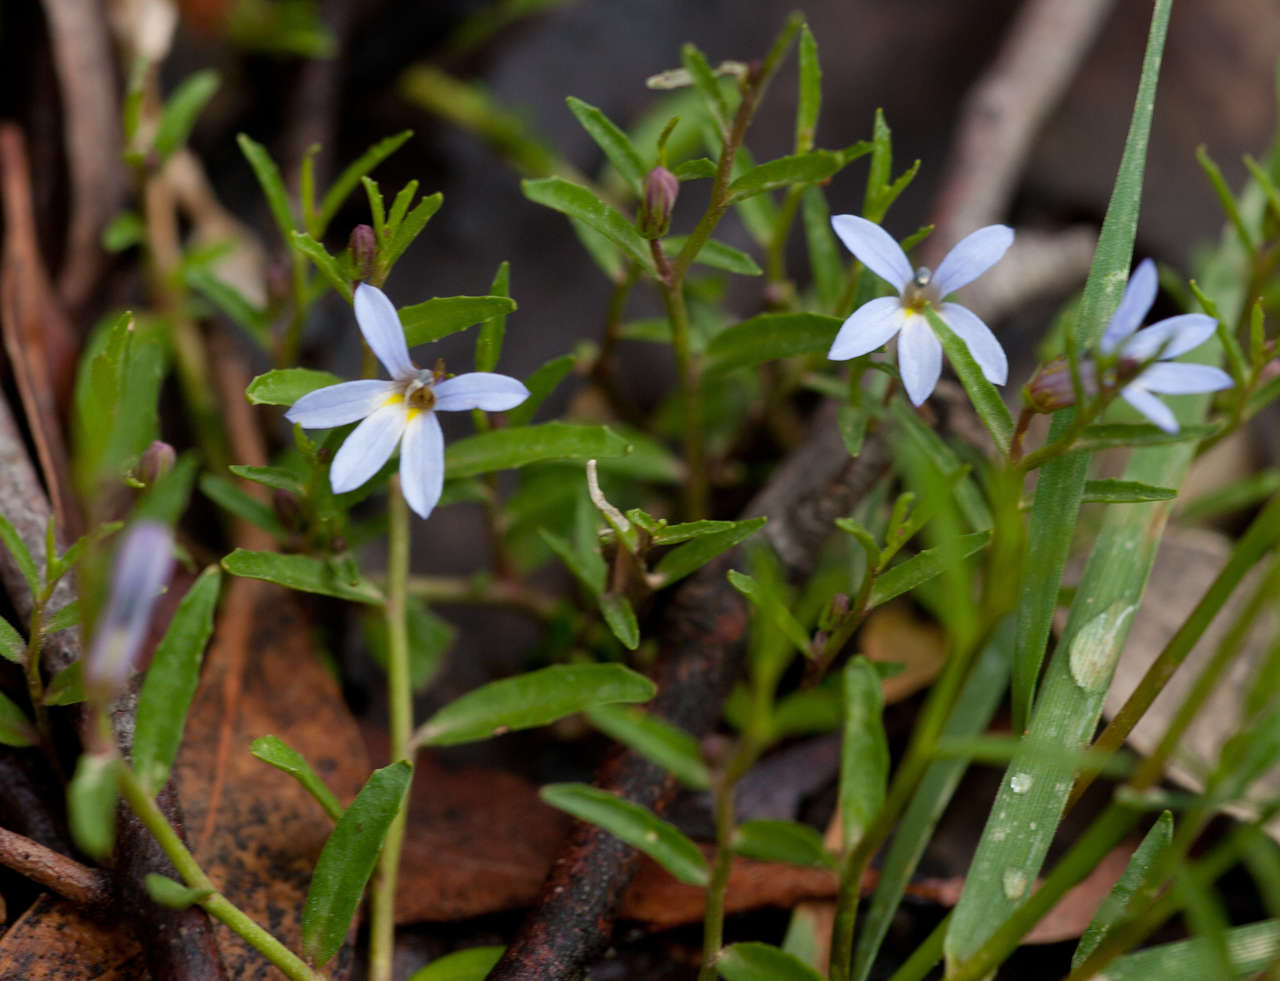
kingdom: Plantae
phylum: Tracheophyta
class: Magnoliopsida
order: Asterales
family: Campanulaceae
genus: Lobelia
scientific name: Lobelia pratioides
